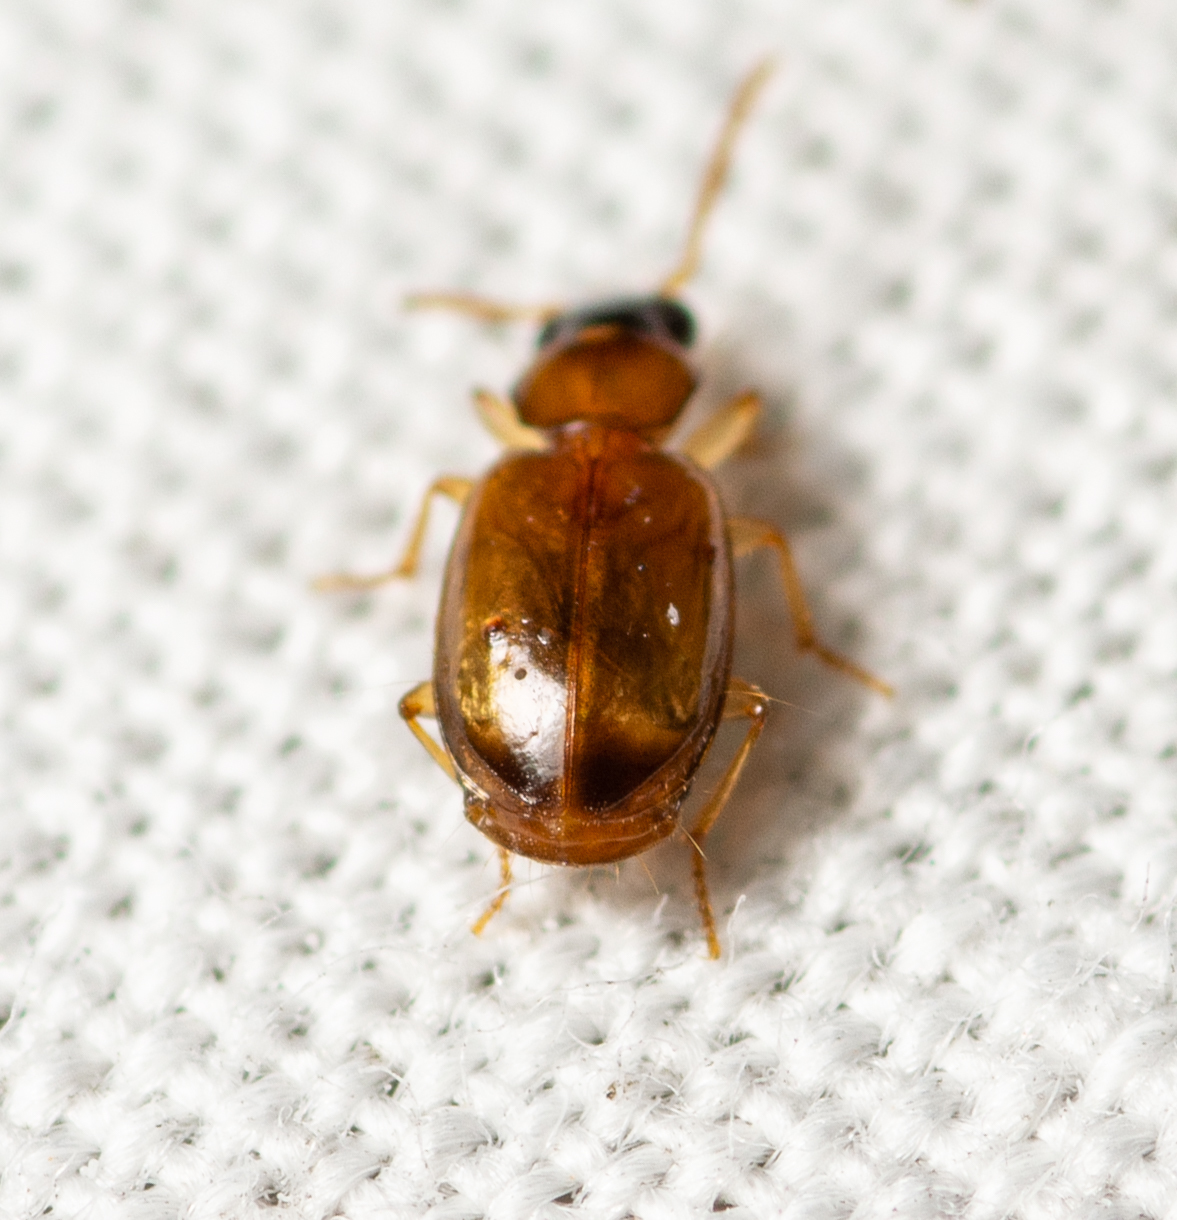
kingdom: Animalia
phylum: Arthropoda
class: Insecta
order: Coleoptera
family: Carabidae
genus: Perigona
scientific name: Perigona nigriceps
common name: Tawny harp ground beetle
